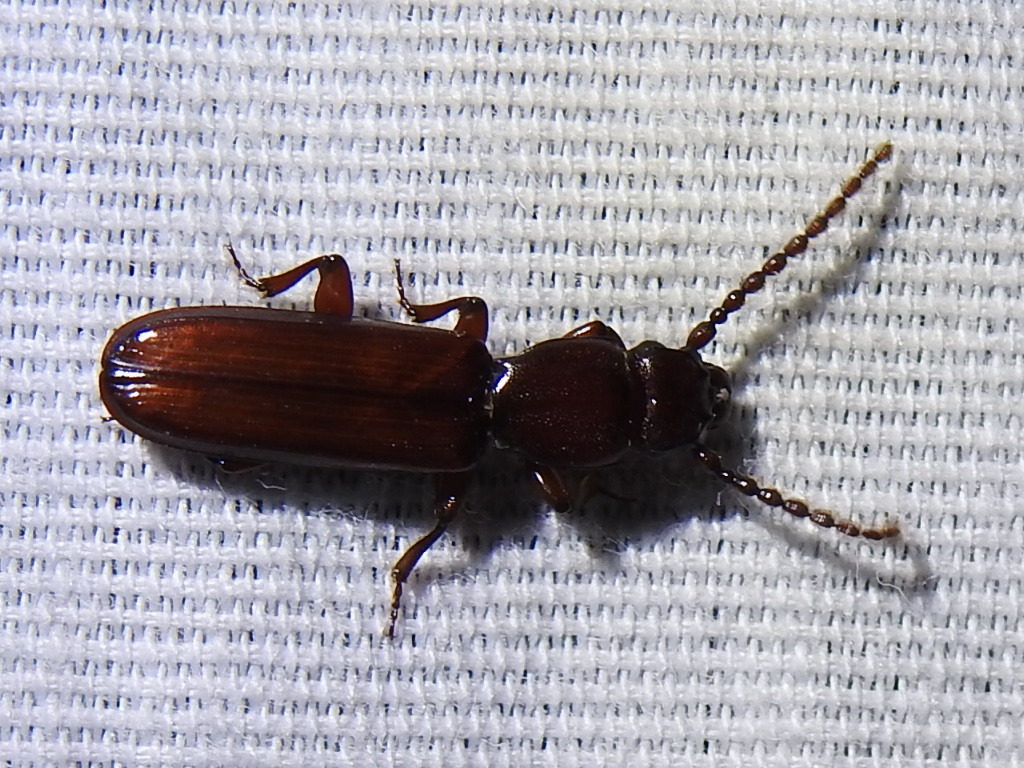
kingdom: Animalia
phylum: Arthropoda
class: Insecta
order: Coleoptera
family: Passandridae
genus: Catogenus
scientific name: Catogenus rufus
